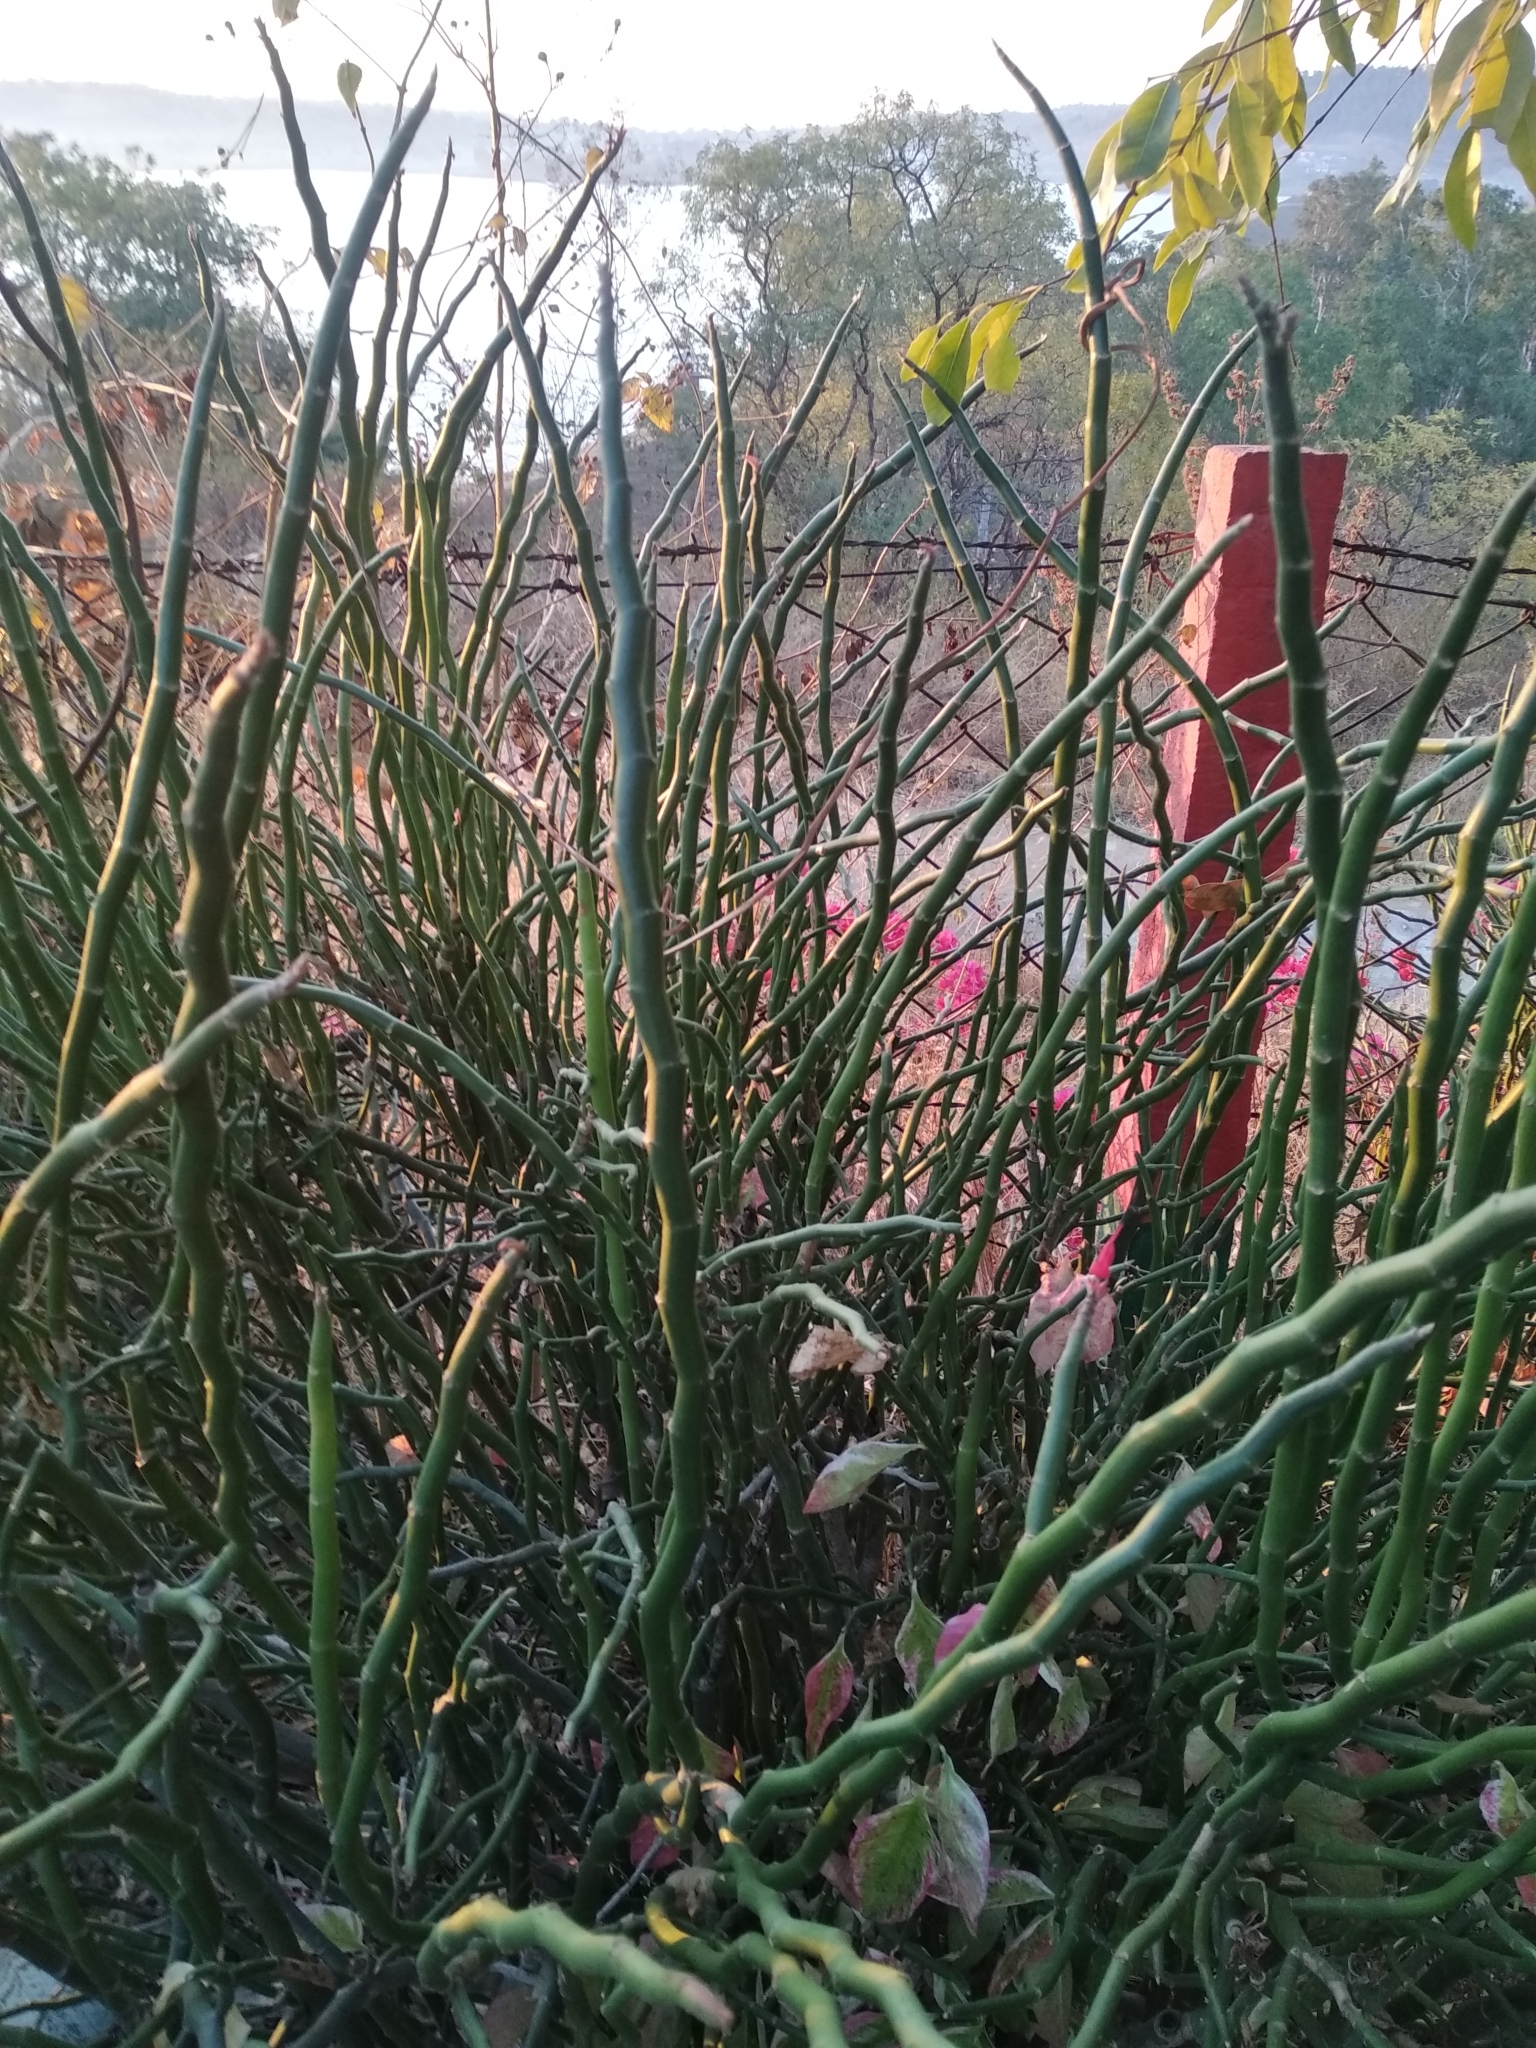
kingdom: Plantae
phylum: Tracheophyta
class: Magnoliopsida
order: Malpighiales
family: Euphorbiaceae
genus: Euphorbia
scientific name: Euphorbia tithymaloides
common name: Slipperplant
